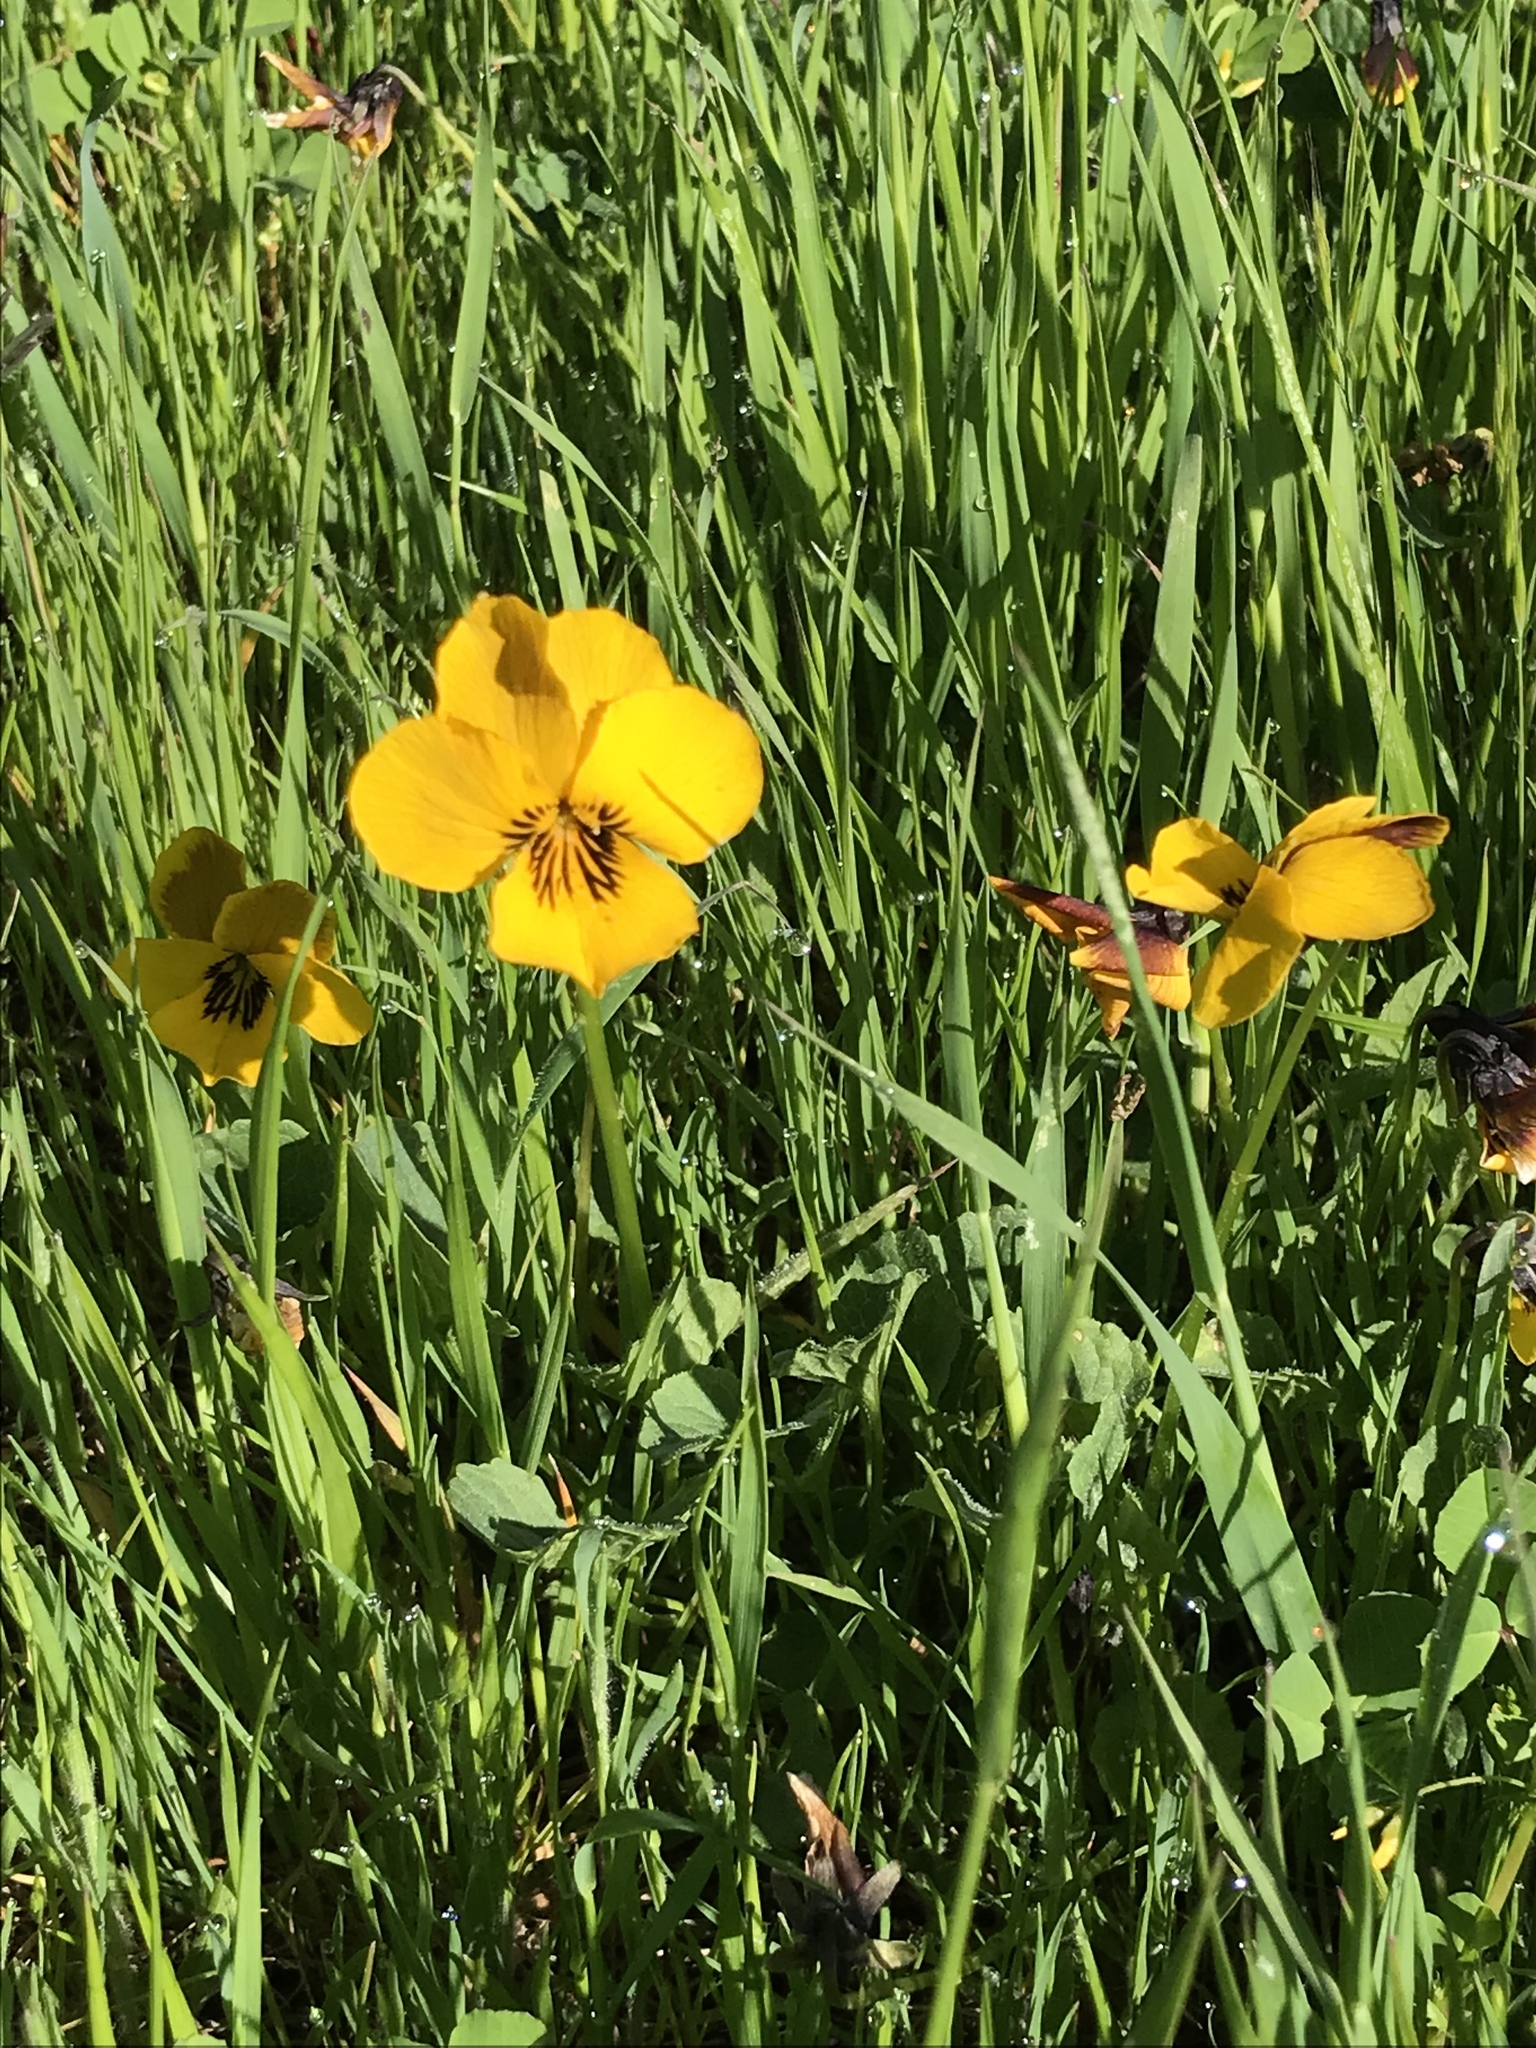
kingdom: Plantae
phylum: Tracheophyta
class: Magnoliopsida
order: Malpighiales
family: Violaceae
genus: Viola
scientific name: Viola pedunculata
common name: California golden violet
